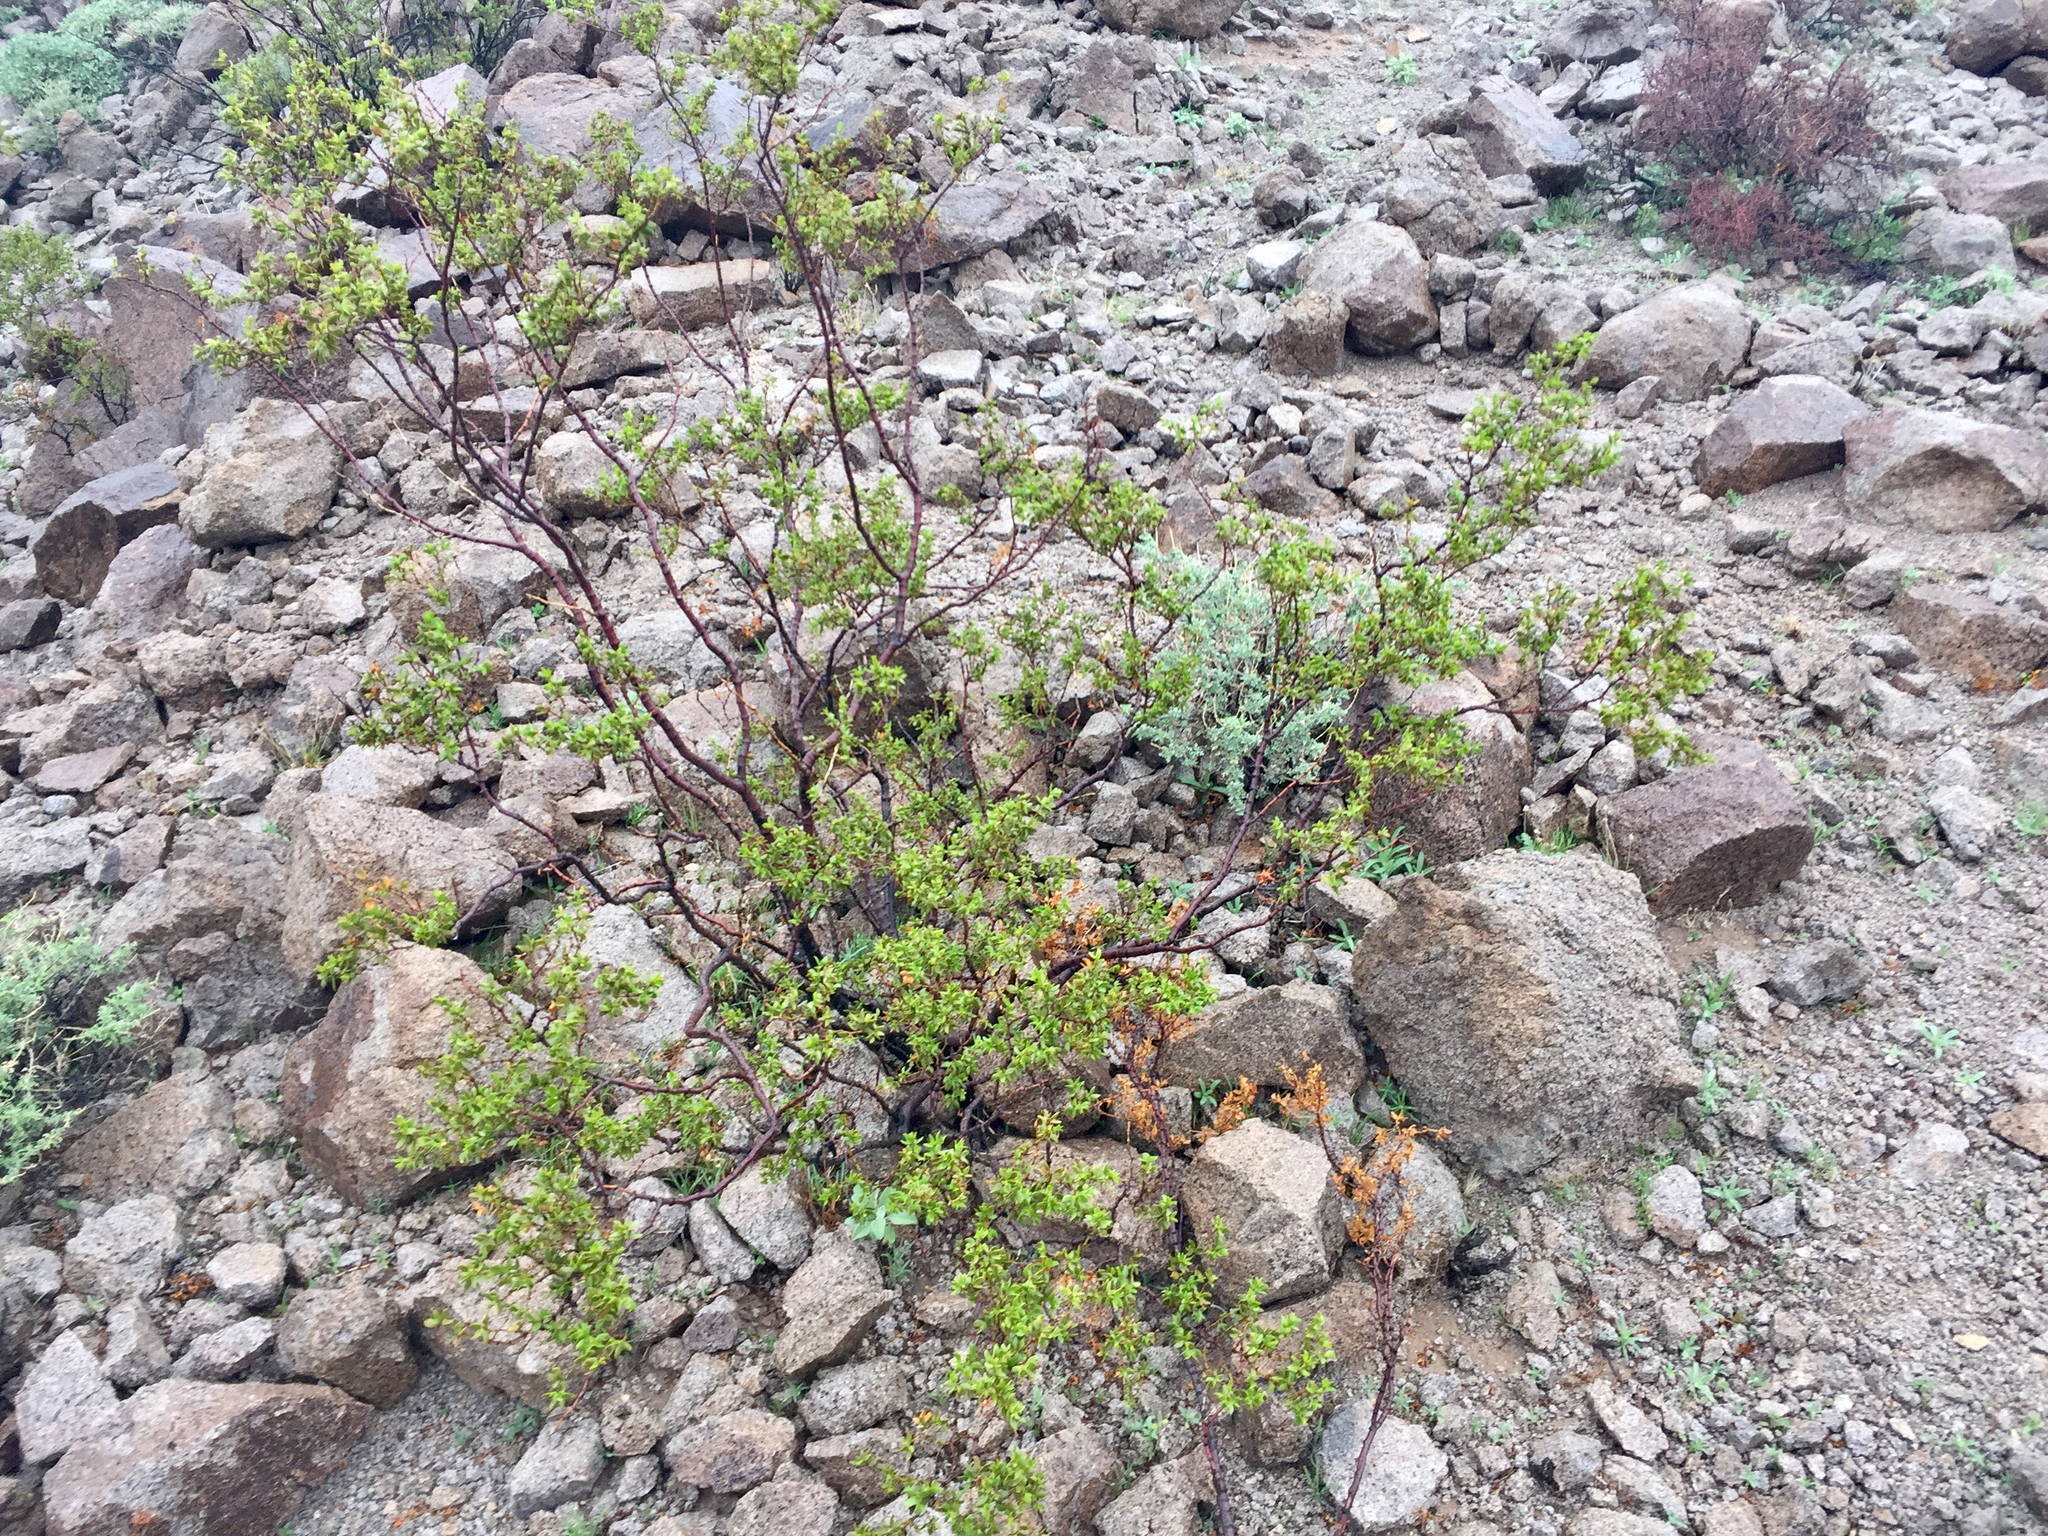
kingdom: Plantae
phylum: Tracheophyta
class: Magnoliopsida
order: Zygophyllales
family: Zygophyllaceae
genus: Larrea
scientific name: Larrea tridentata
